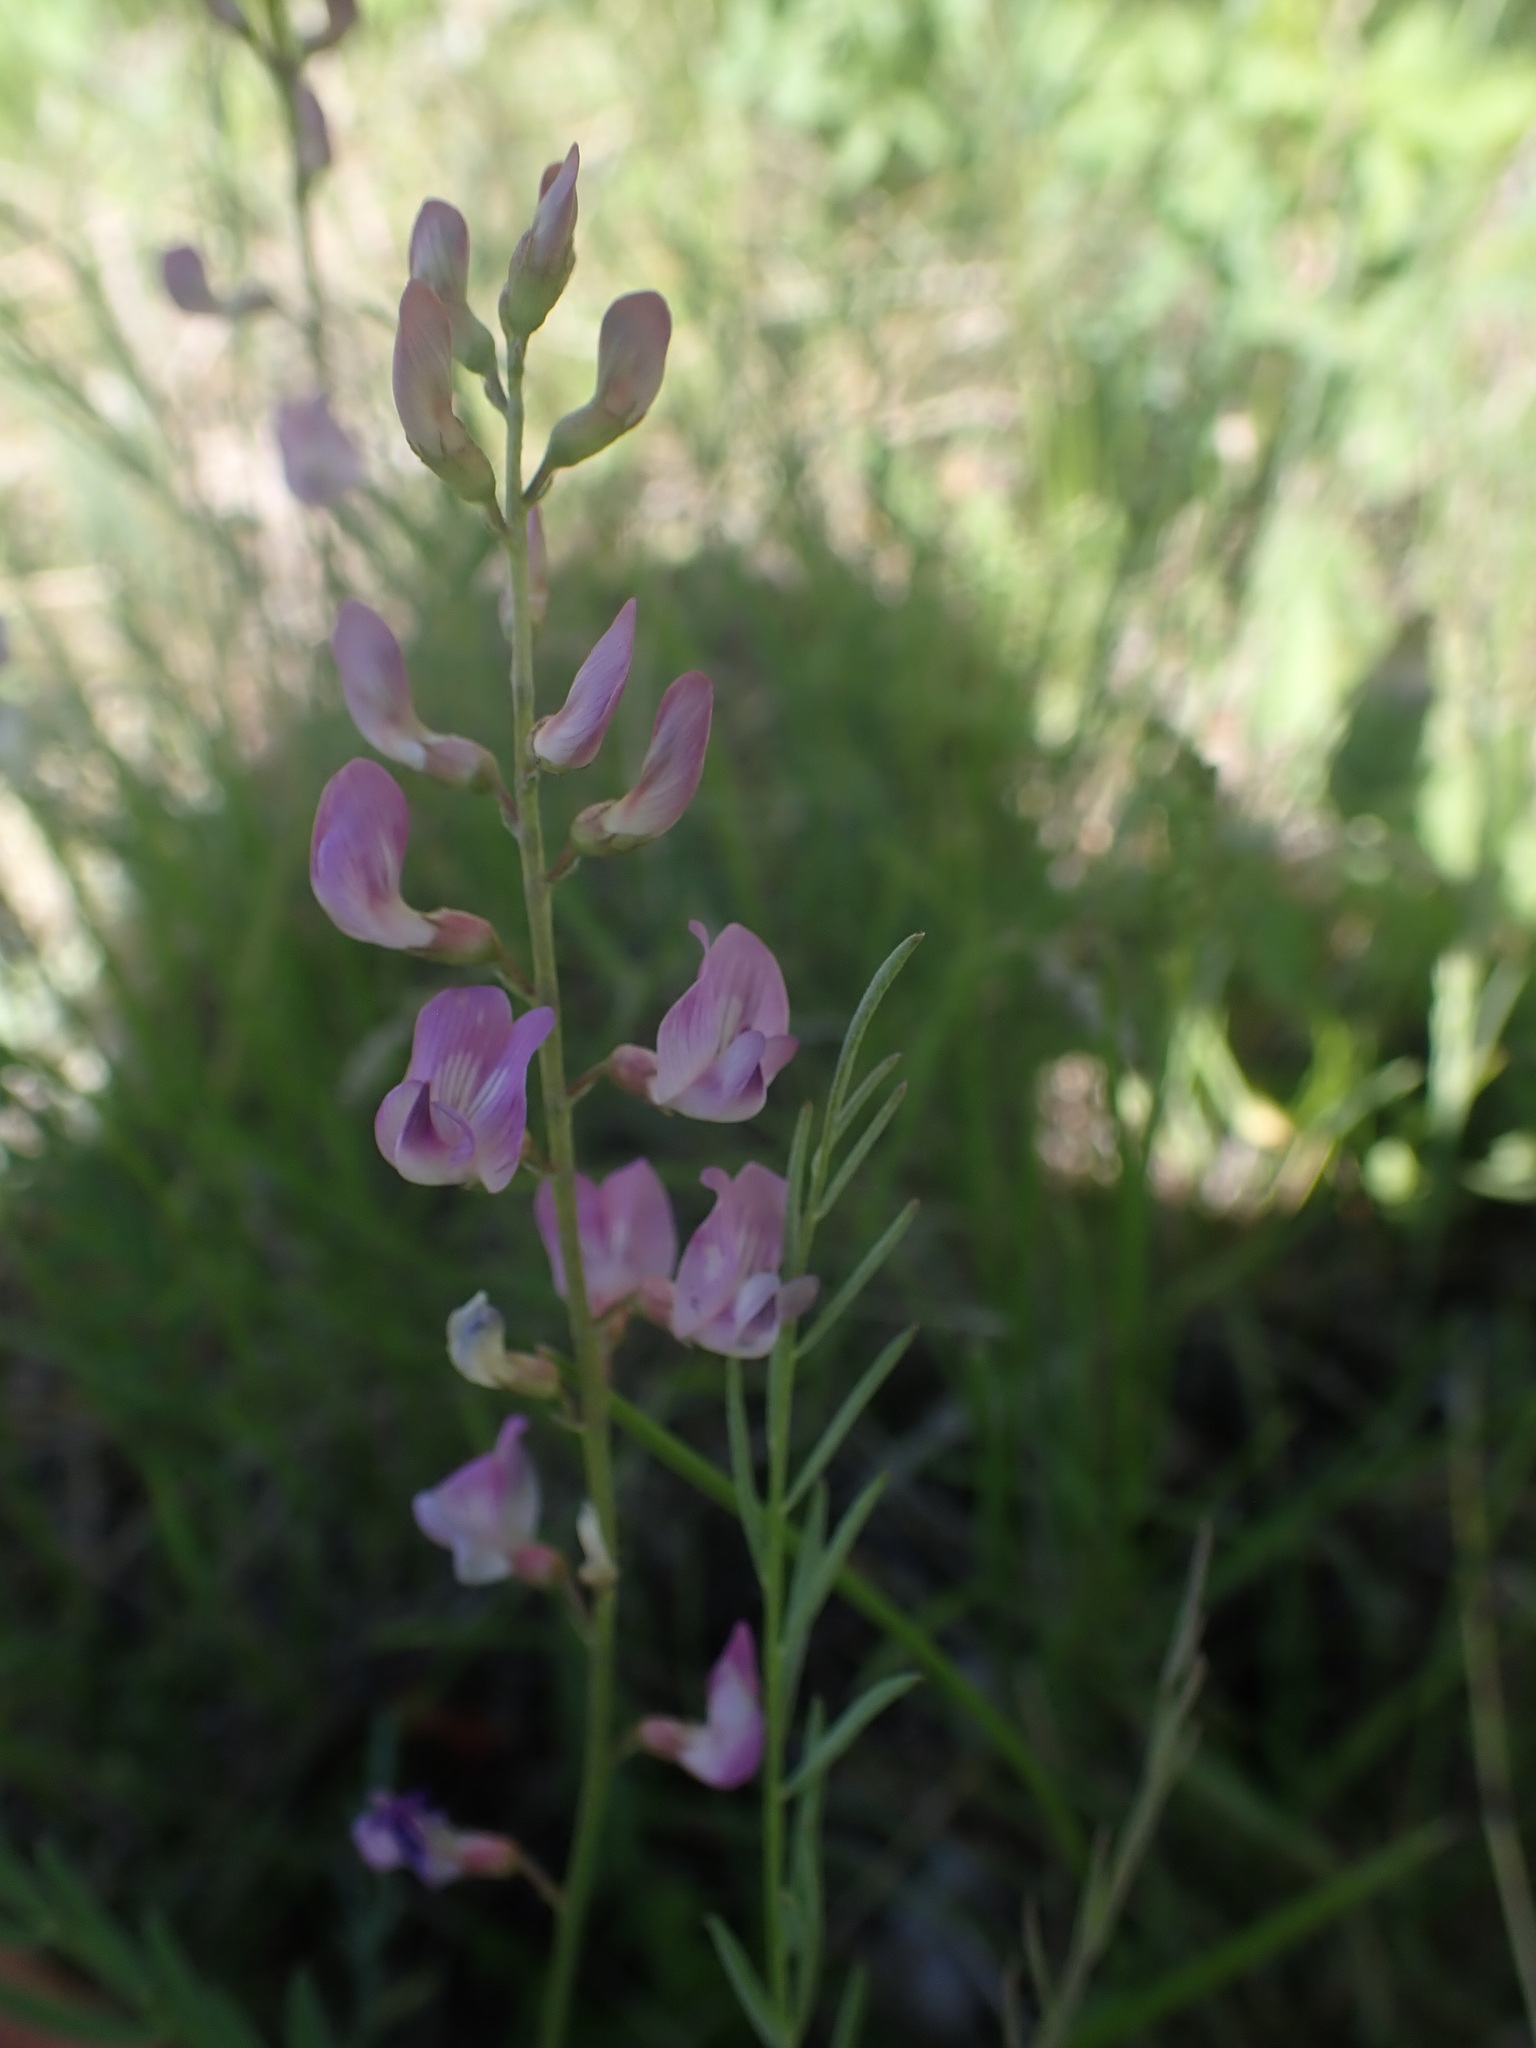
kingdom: Plantae
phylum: Tracheophyta
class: Magnoliopsida
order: Fabales
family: Fabaceae
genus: Astragalus
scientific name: Astragalus miser
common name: Timber milkvetch
